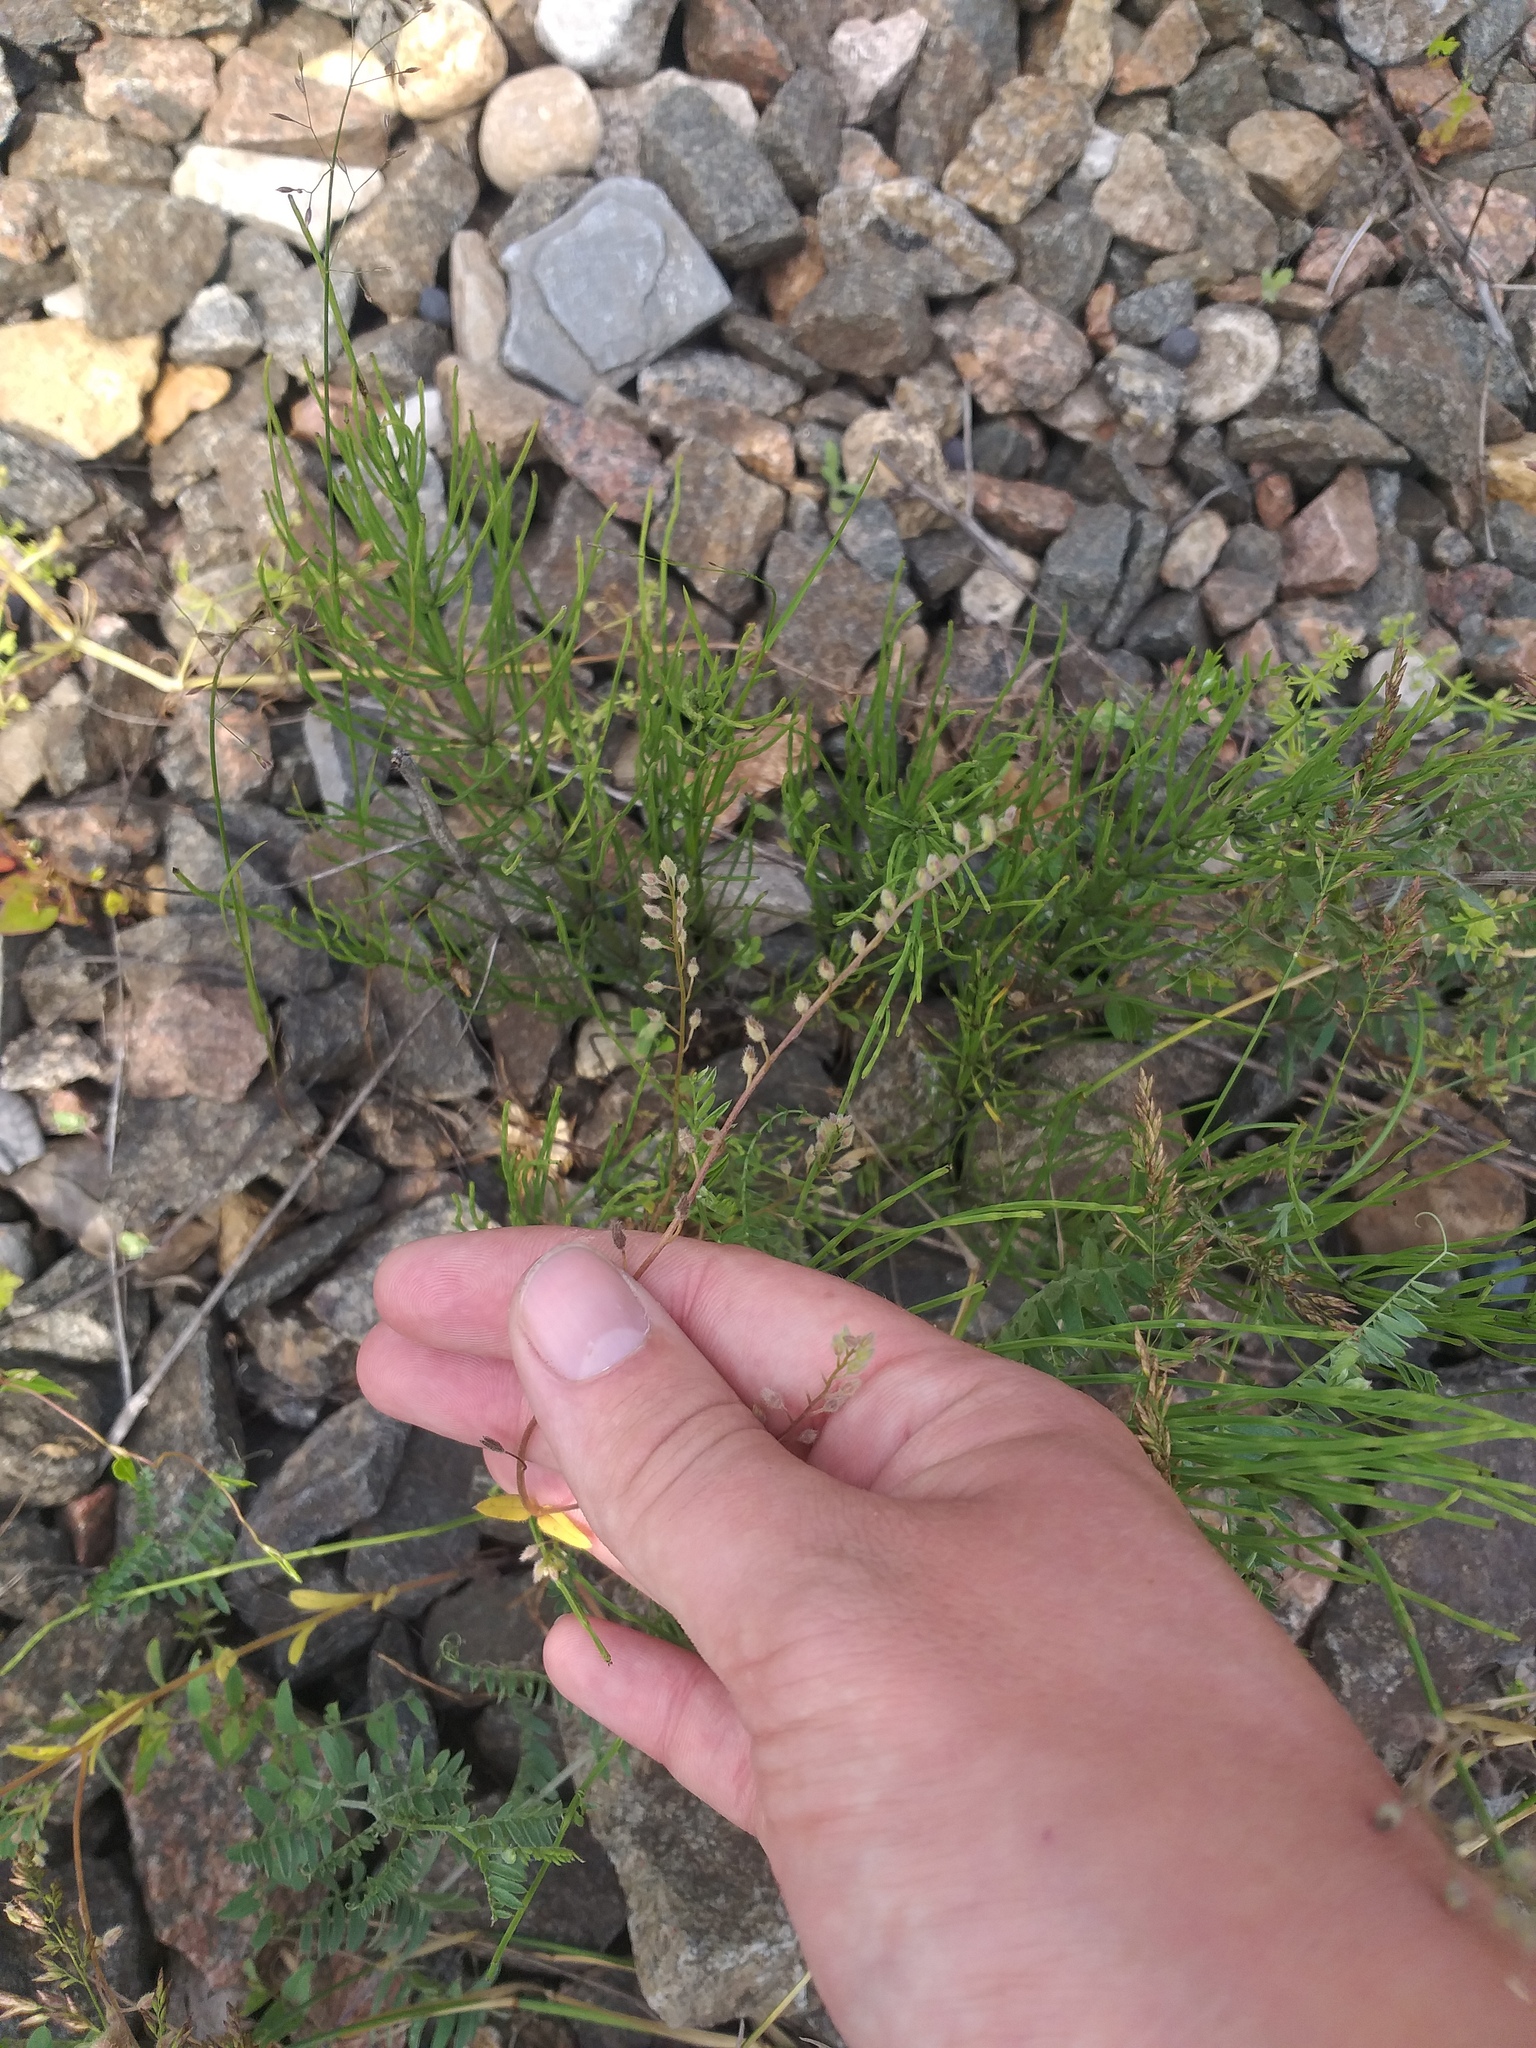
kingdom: Plantae
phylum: Tracheophyta
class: Magnoliopsida
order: Boraginales
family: Boraginaceae
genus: Myosotis
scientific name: Myosotis arvensis
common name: Field forget-me-not
